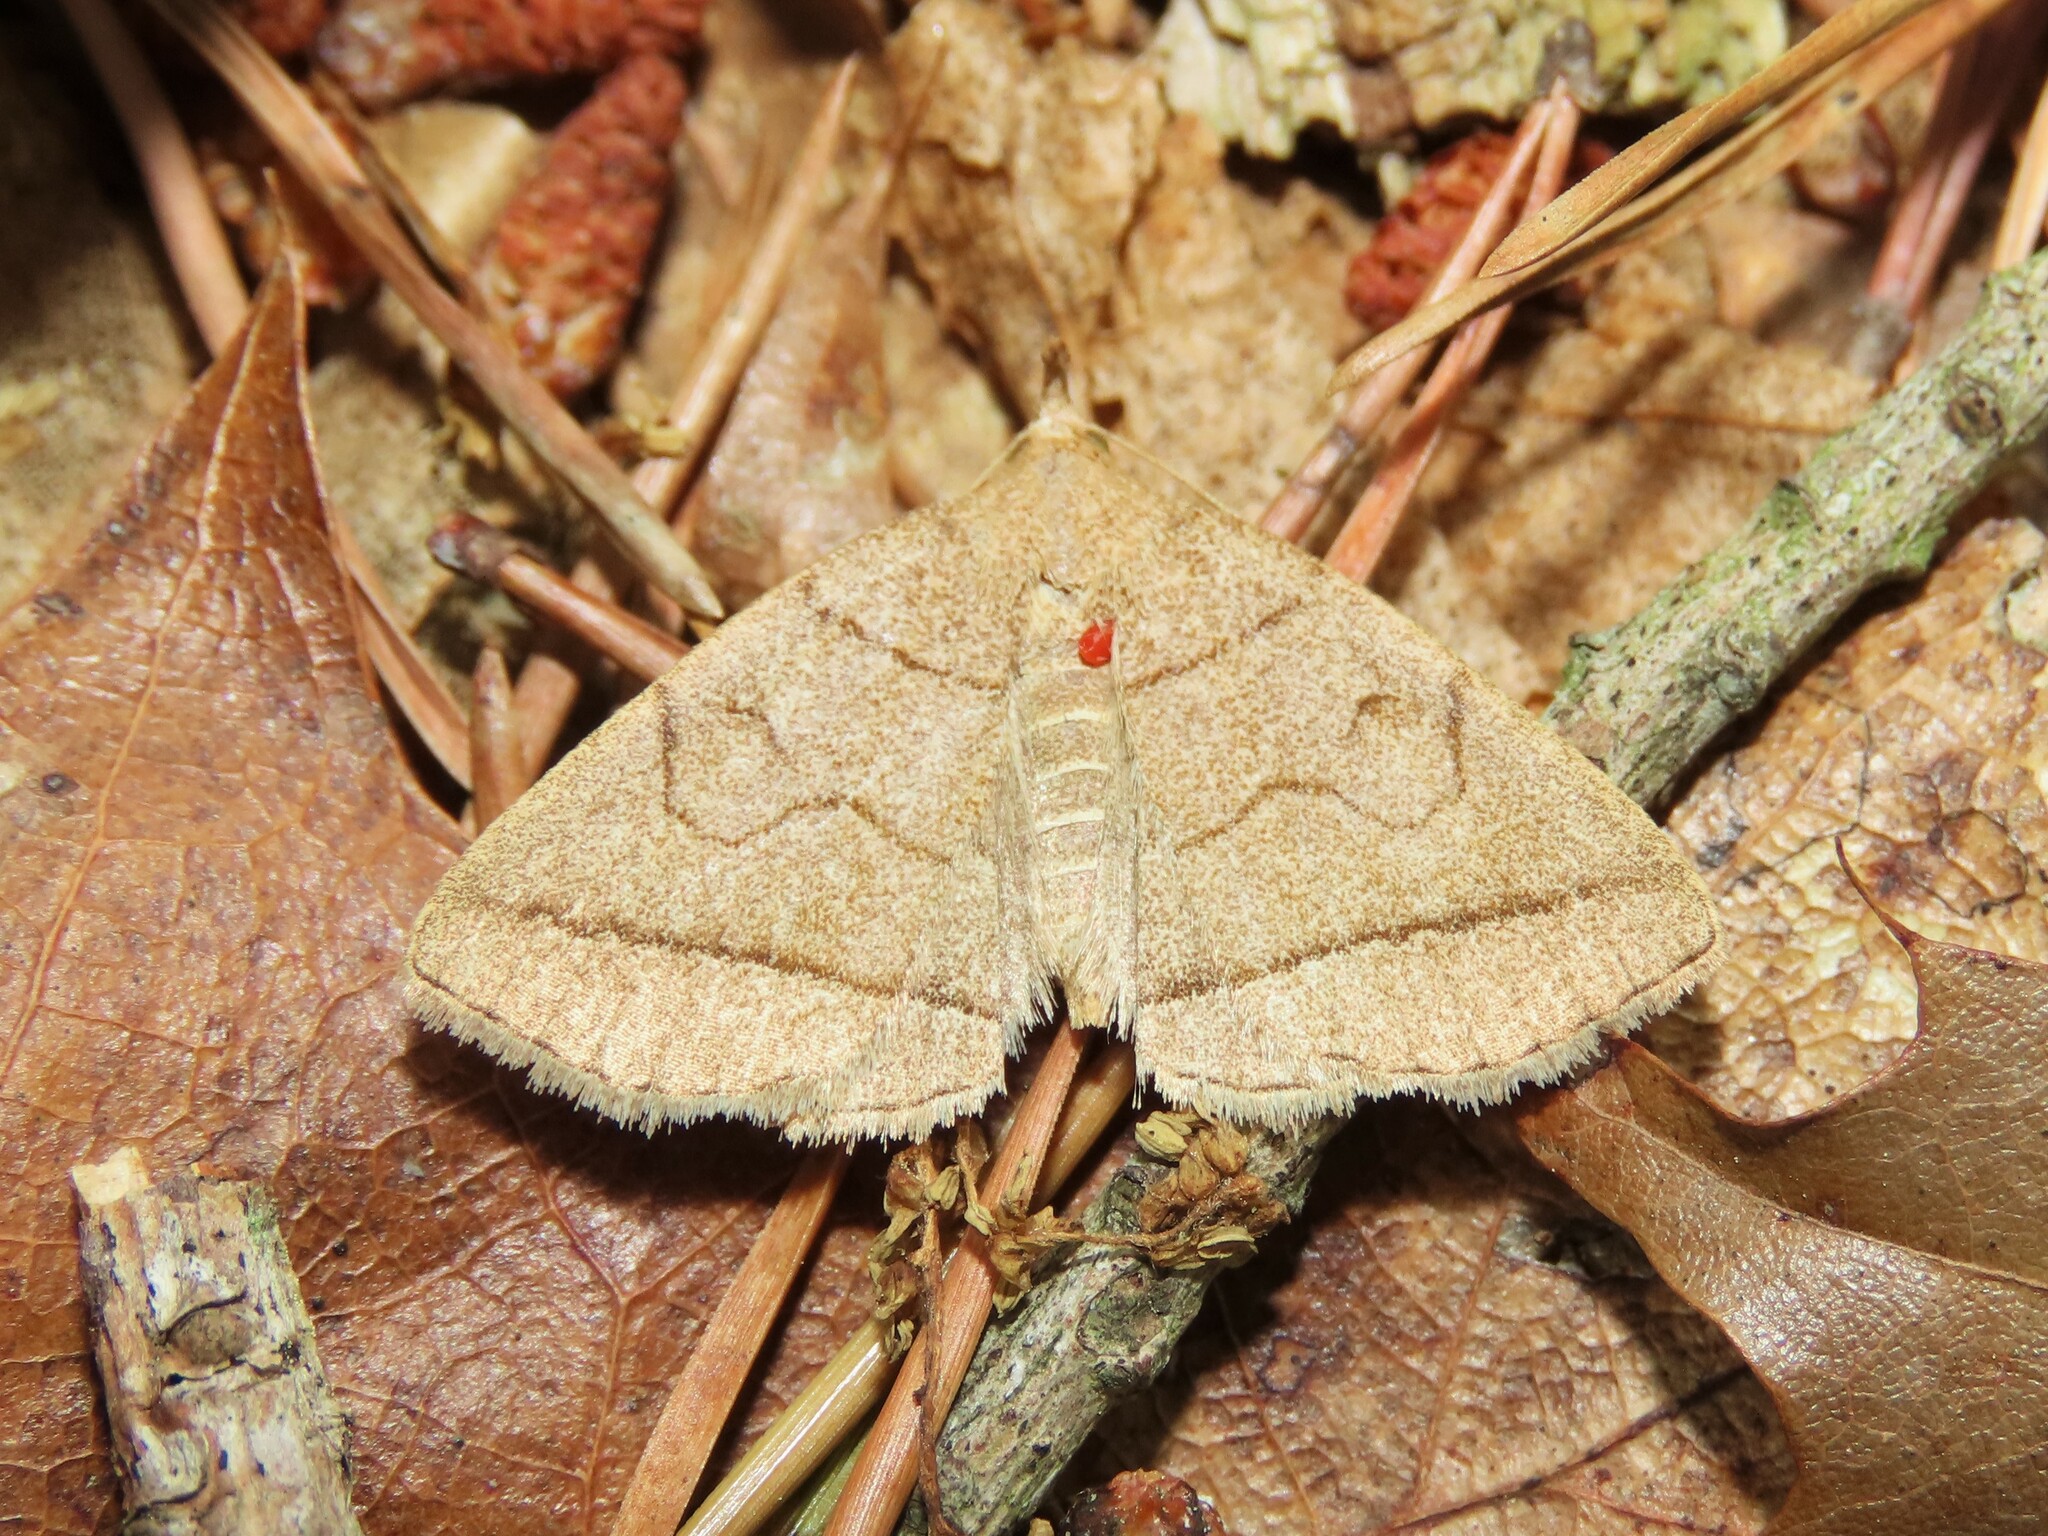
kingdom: Animalia
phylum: Arthropoda
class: Insecta
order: Lepidoptera
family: Erebidae
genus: Zanclognatha
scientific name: Zanclognatha cruralis
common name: Early fan-foot
